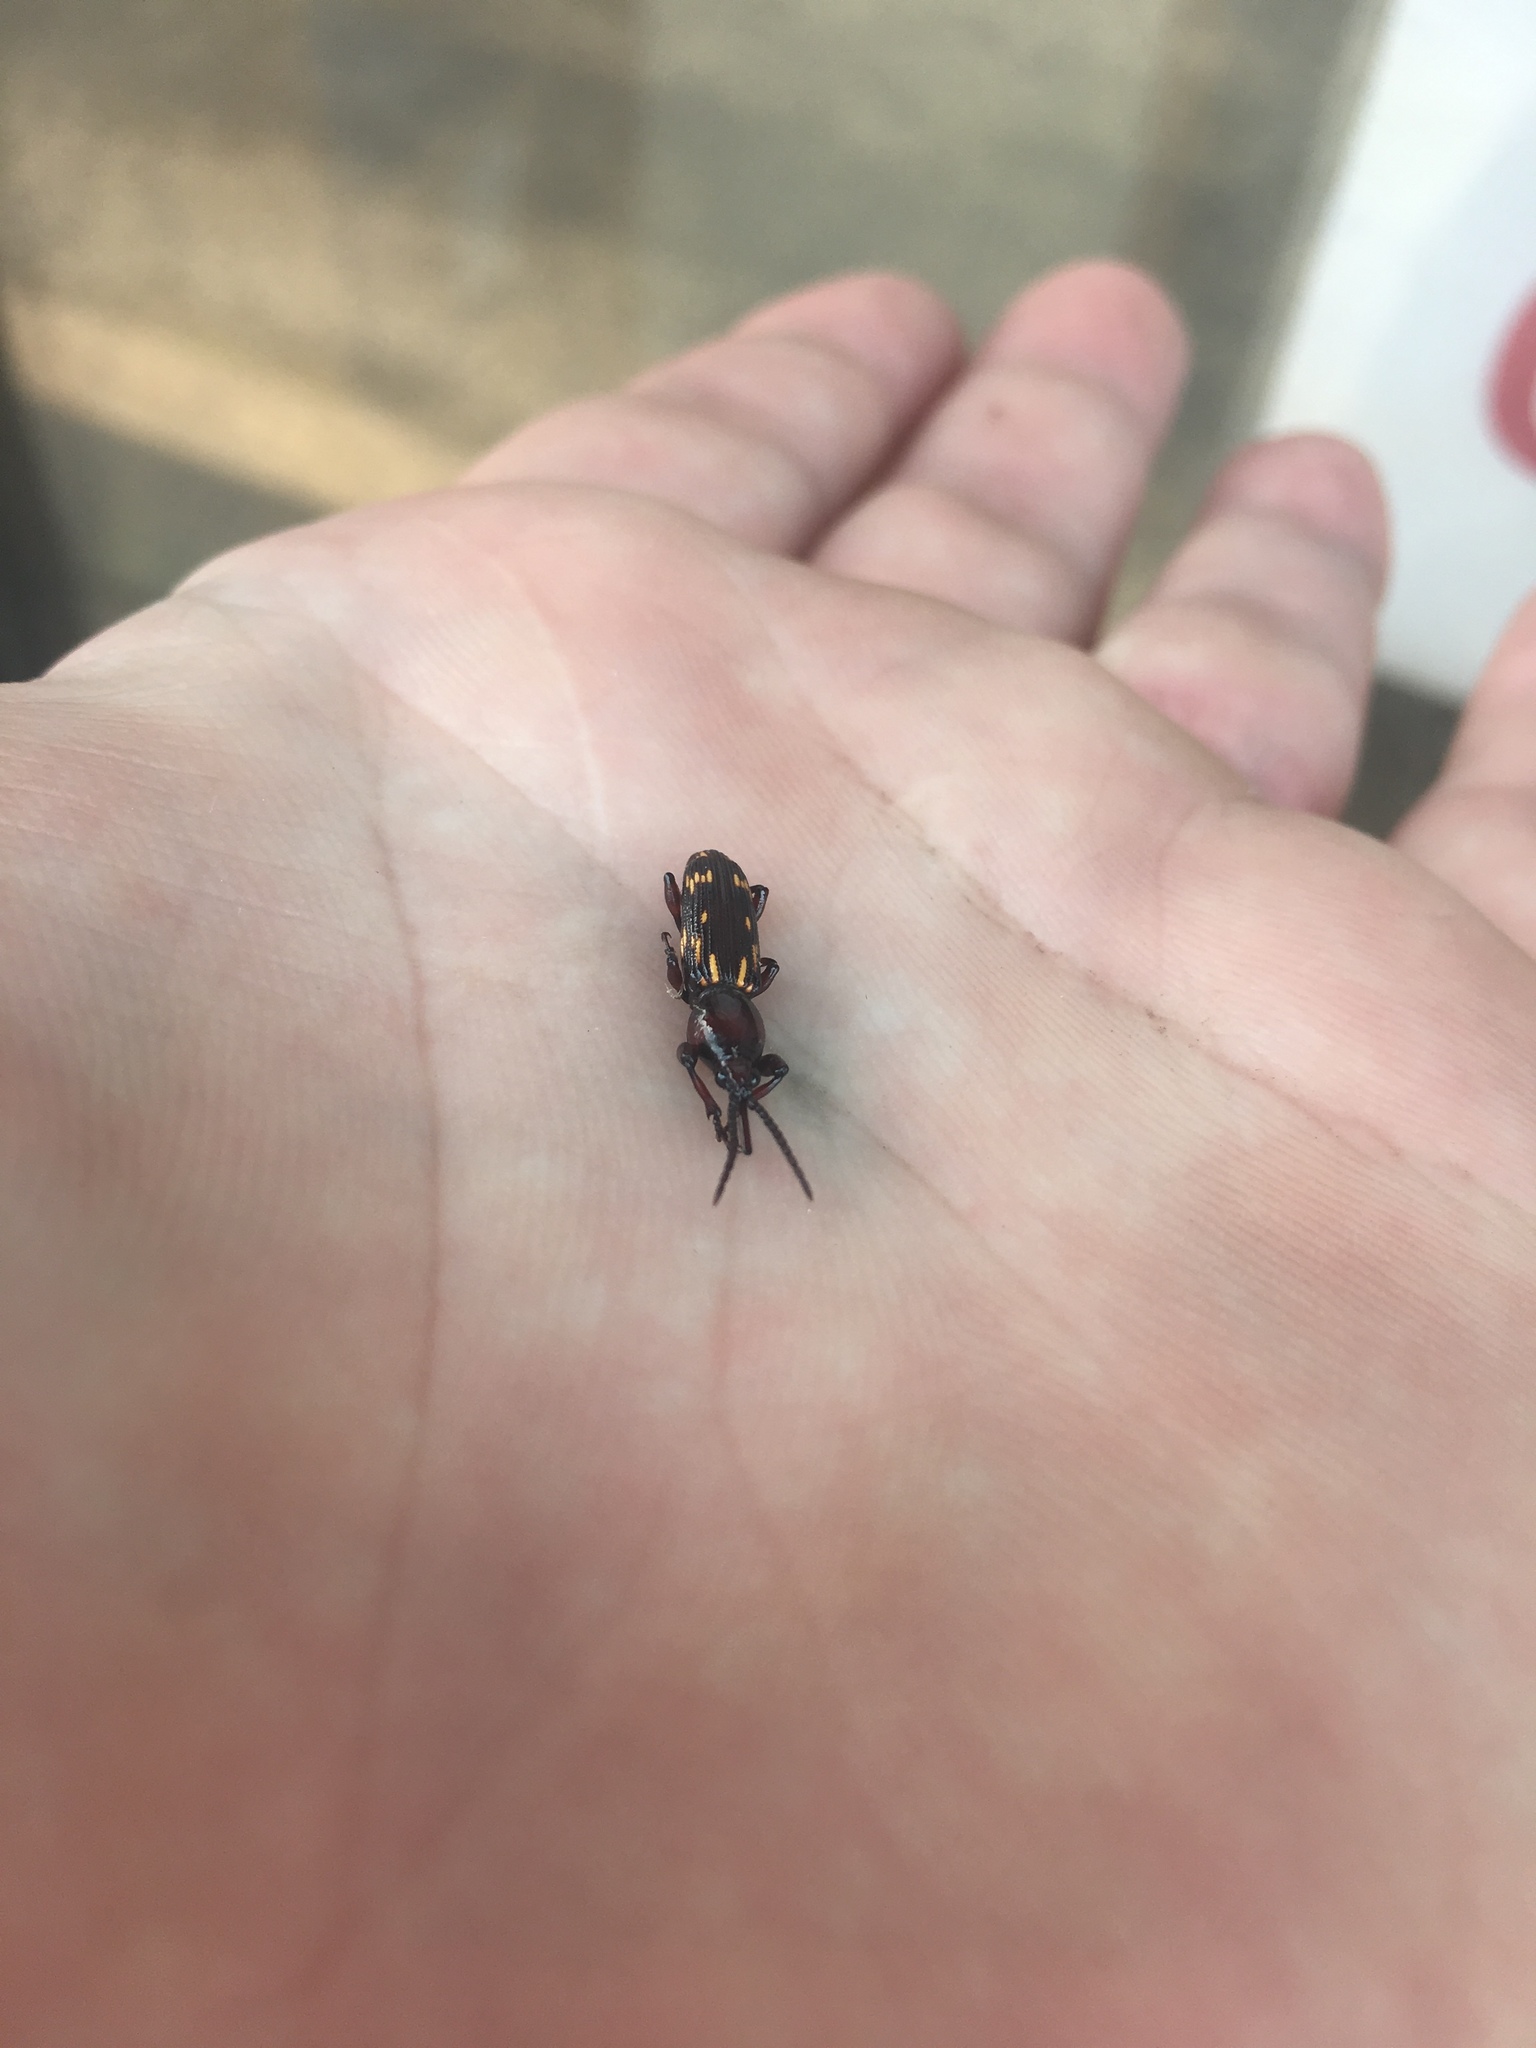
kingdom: Animalia
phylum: Arthropoda
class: Insecta
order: Coleoptera
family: Brentidae
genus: Arrenodes
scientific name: Arrenodes minutus
